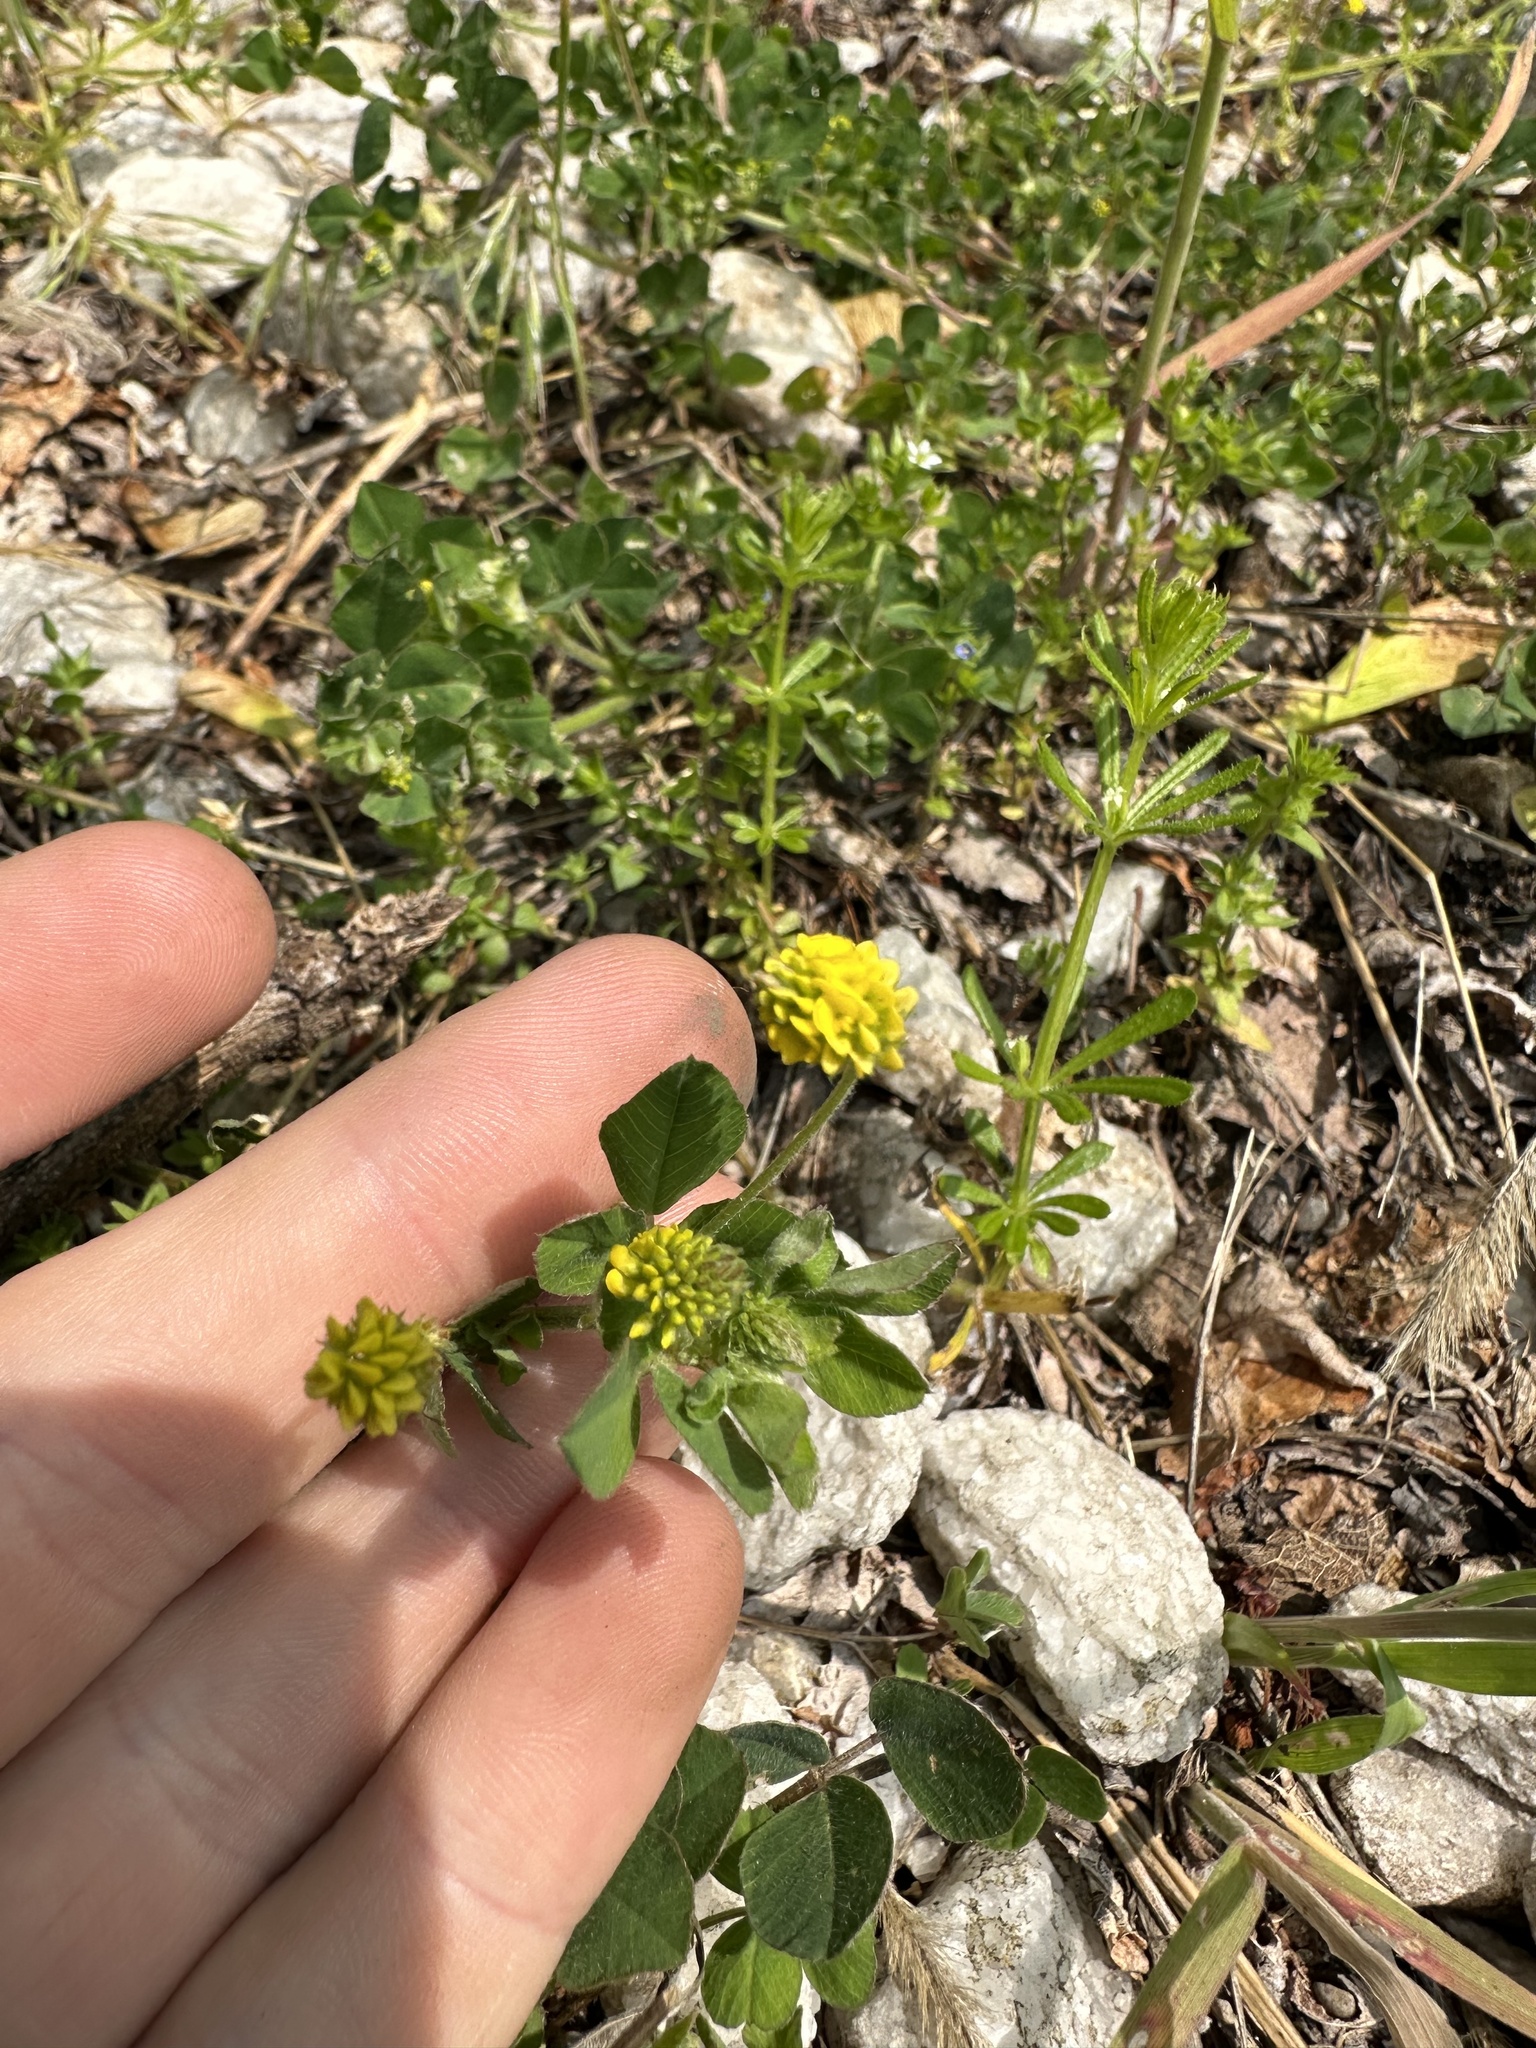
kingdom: Plantae
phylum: Tracheophyta
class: Magnoliopsida
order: Fabales
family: Fabaceae
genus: Medicago
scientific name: Medicago lupulina
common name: Black medick
